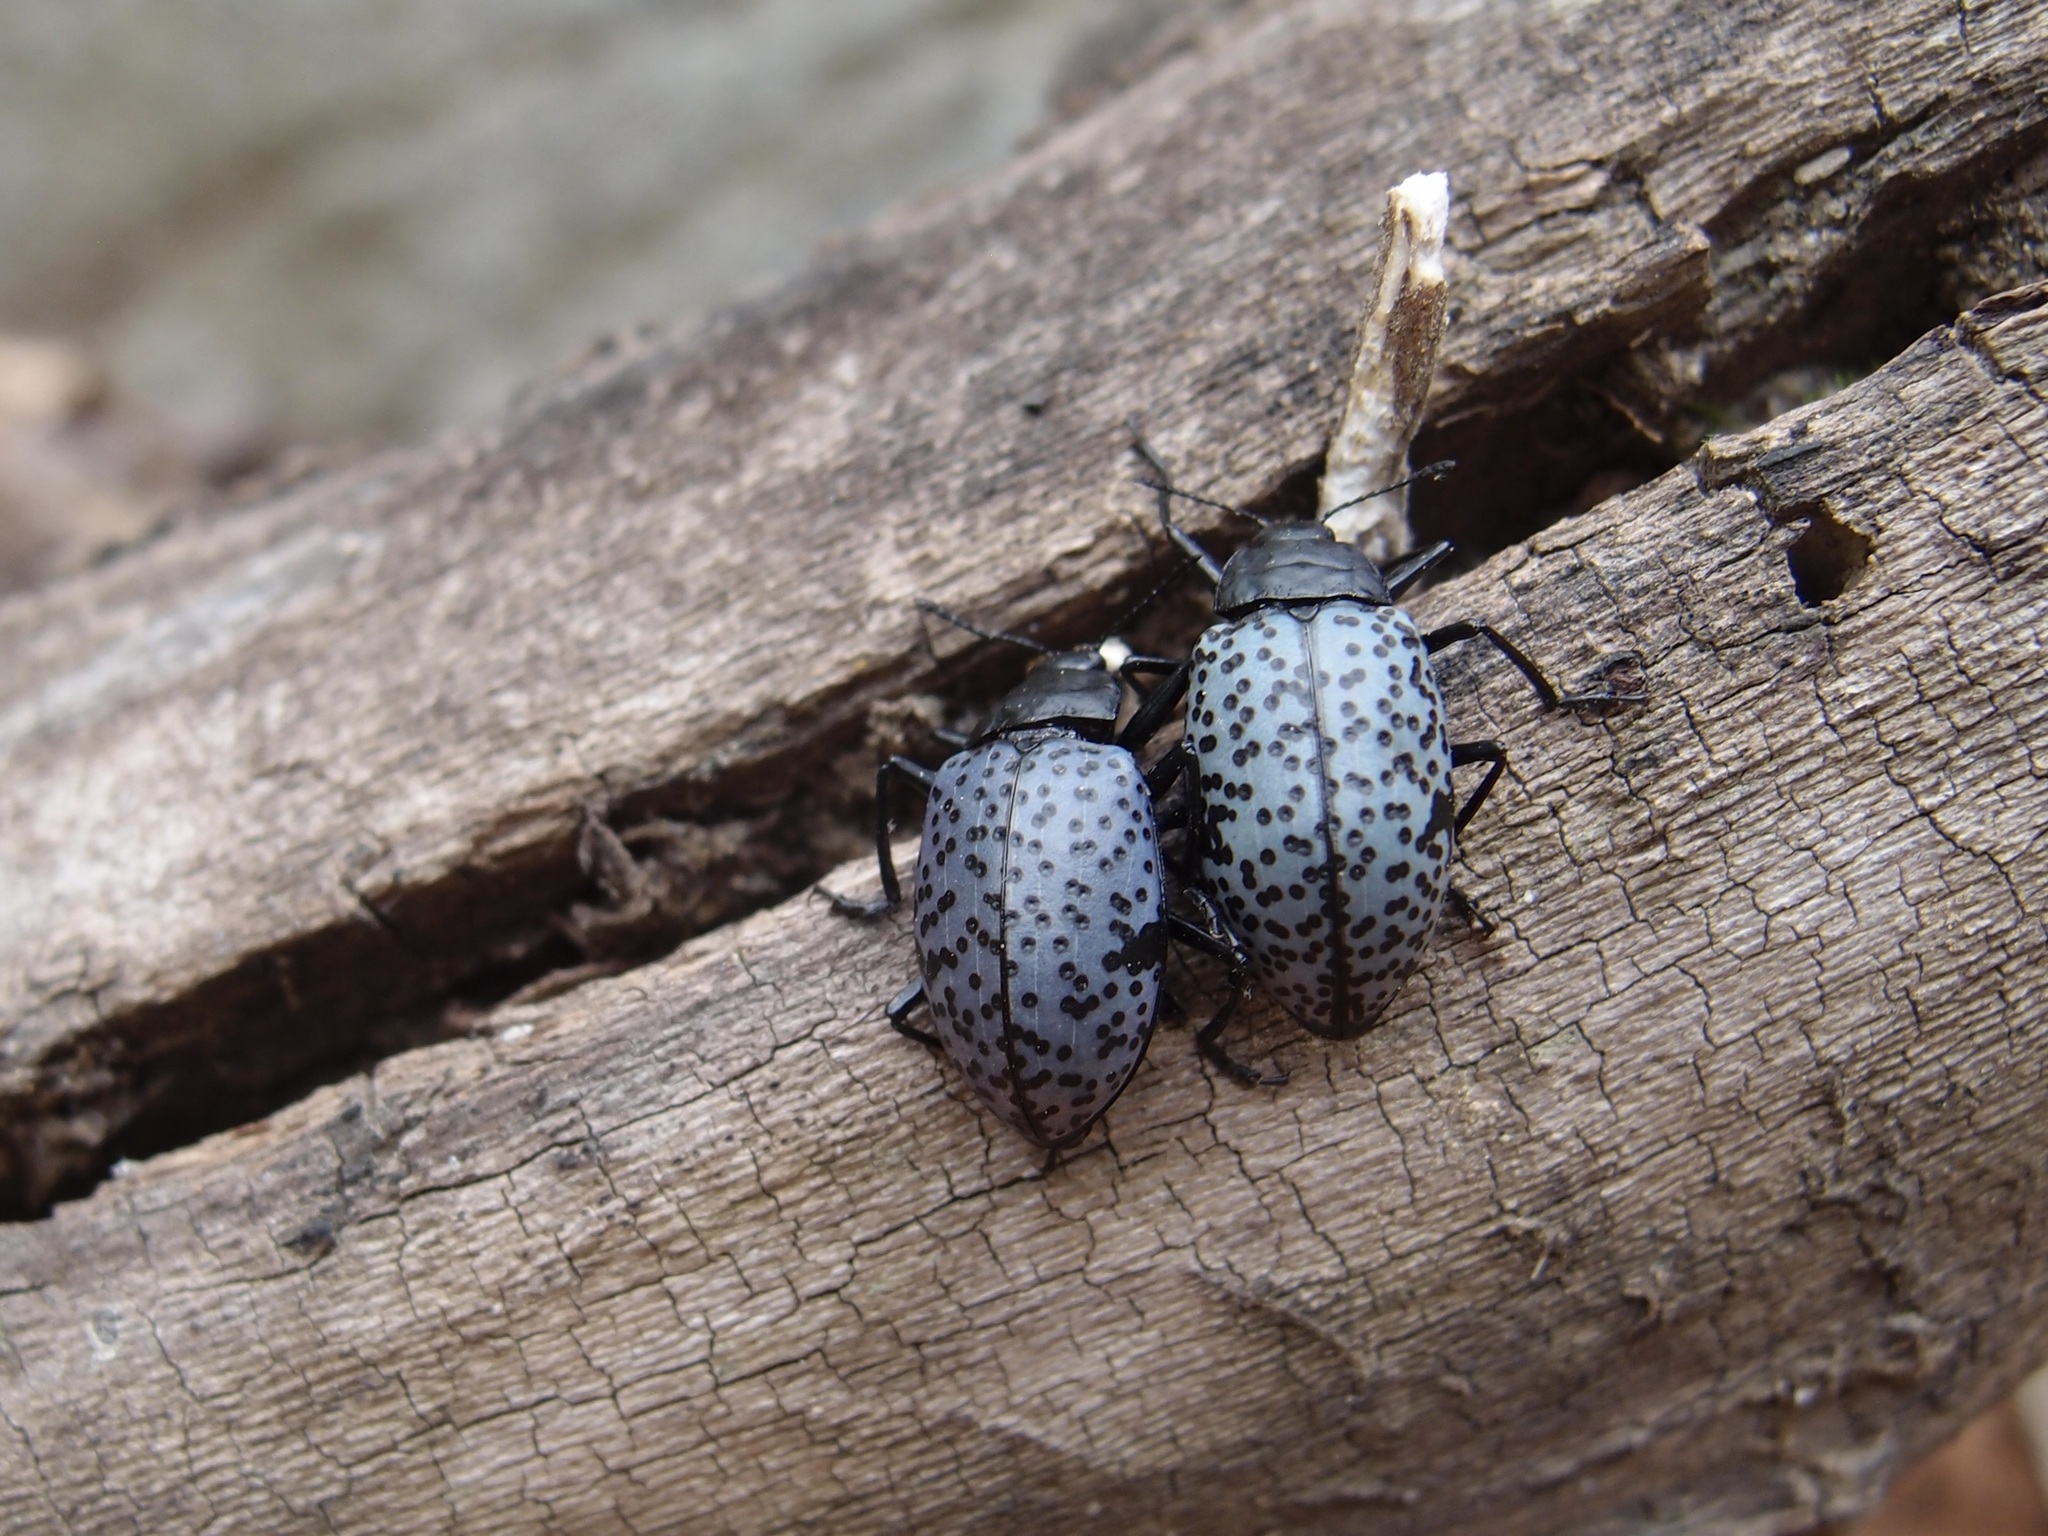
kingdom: Animalia
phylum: Arthropoda
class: Insecta
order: Coleoptera
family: Erotylidae
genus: Gibbifer
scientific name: Gibbifer californicus
